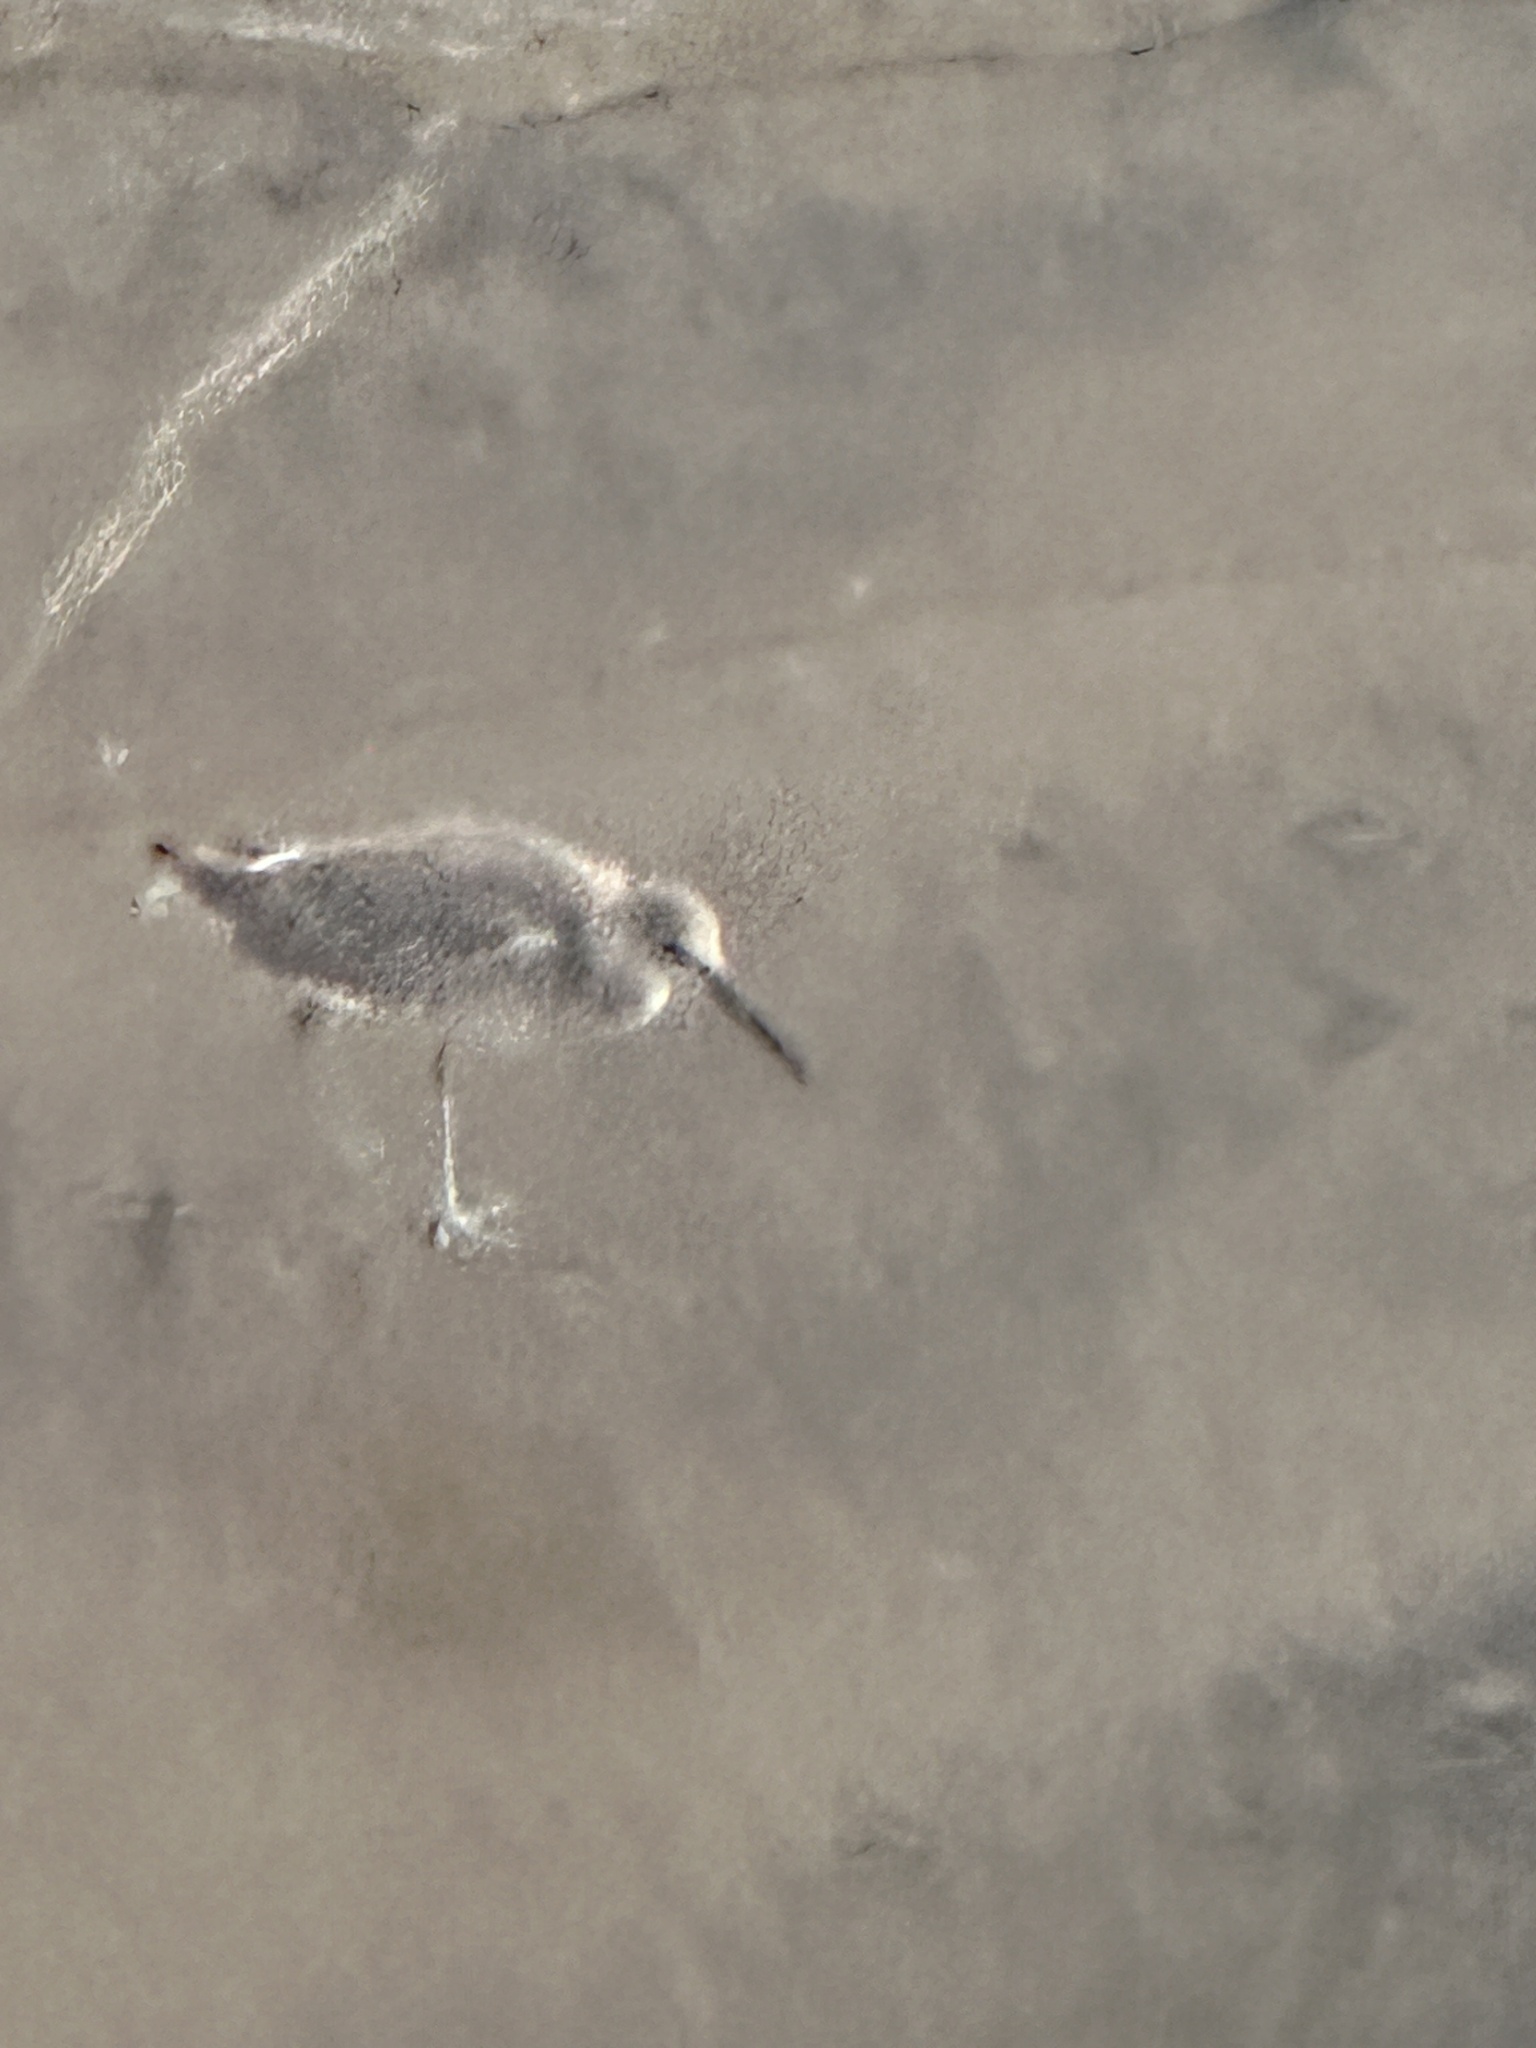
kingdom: Animalia
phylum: Chordata
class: Aves
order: Charadriiformes
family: Scolopacidae
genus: Tringa
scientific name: Tringa semipalmata
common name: Willet
